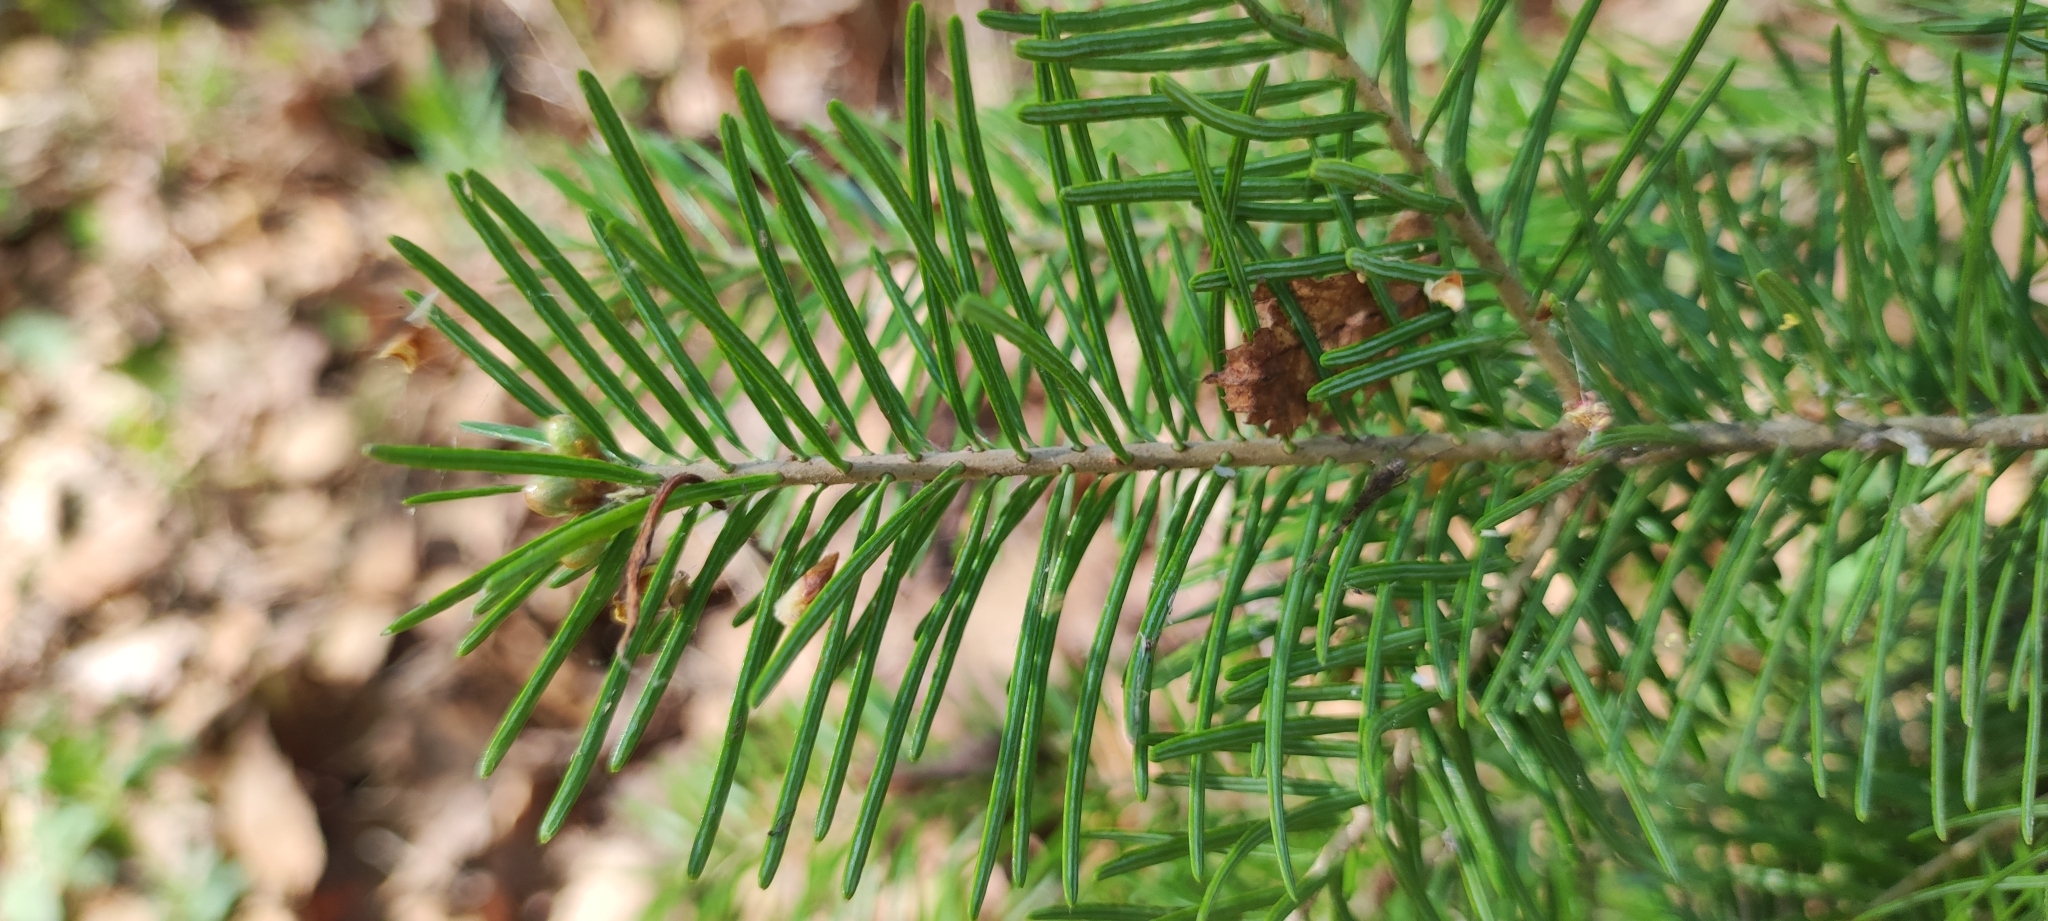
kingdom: Plantae
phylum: Tracheophyta
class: Pinopsida
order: Pinales
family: Pinaceae
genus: Abies
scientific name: Abies sibirica
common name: Siberian fir
